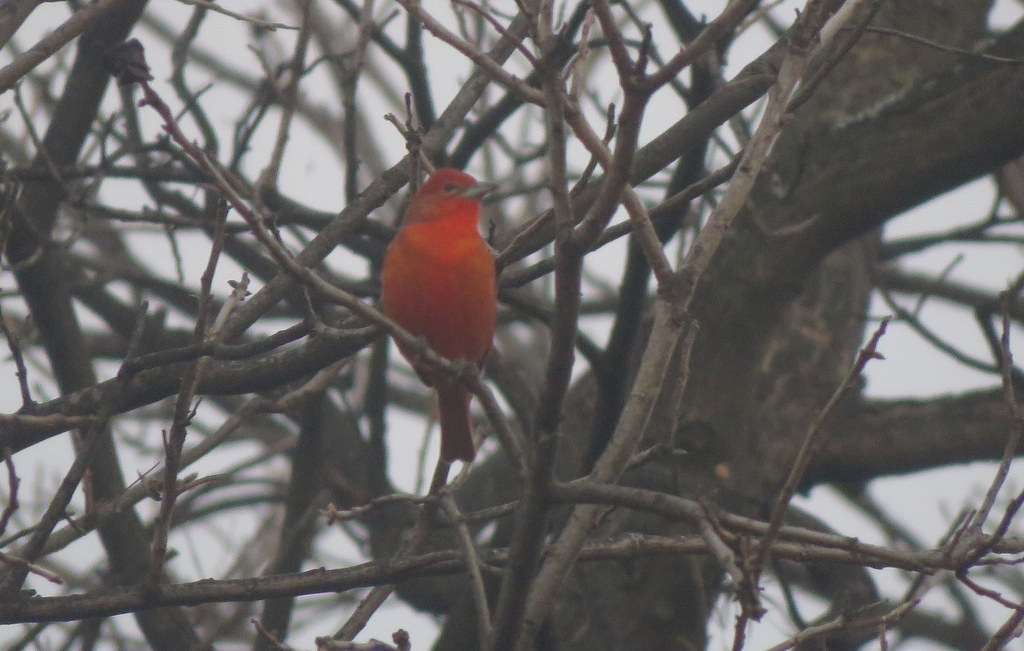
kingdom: Animalia
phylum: Chordata
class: Aves
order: Passeriformes
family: Cardinalidae
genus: Piranga
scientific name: Piranga flava
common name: Red tanager
